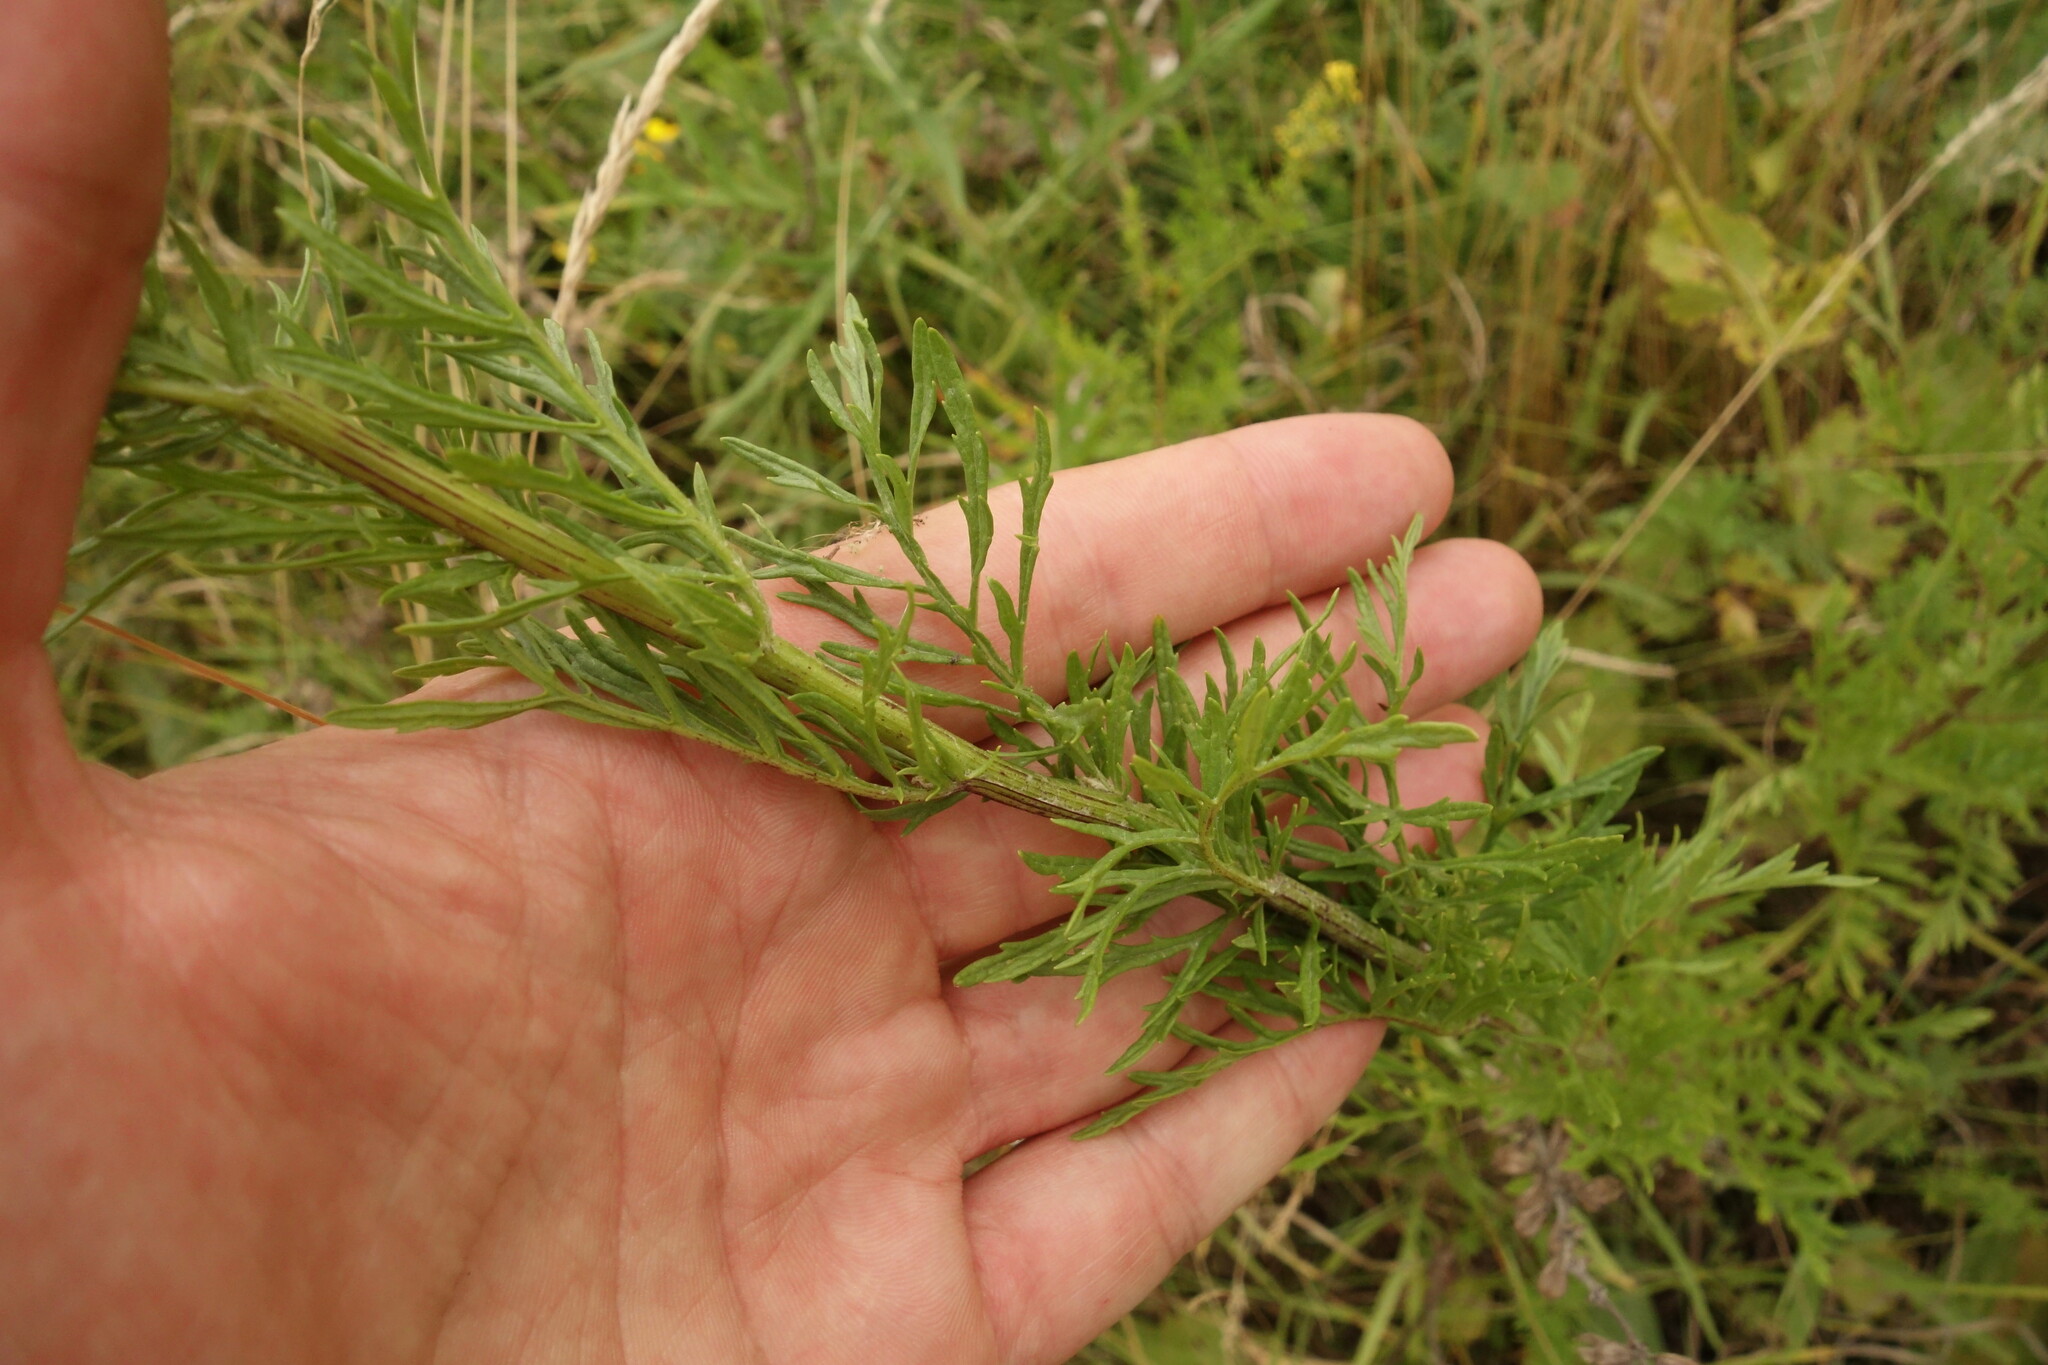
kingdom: Plantae
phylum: Tracheophyta
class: Magnoliopsida
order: Asterales
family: Asteraceae
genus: Jacobaea
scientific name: Jacobaea erucifolia
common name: Hoary ragwort
